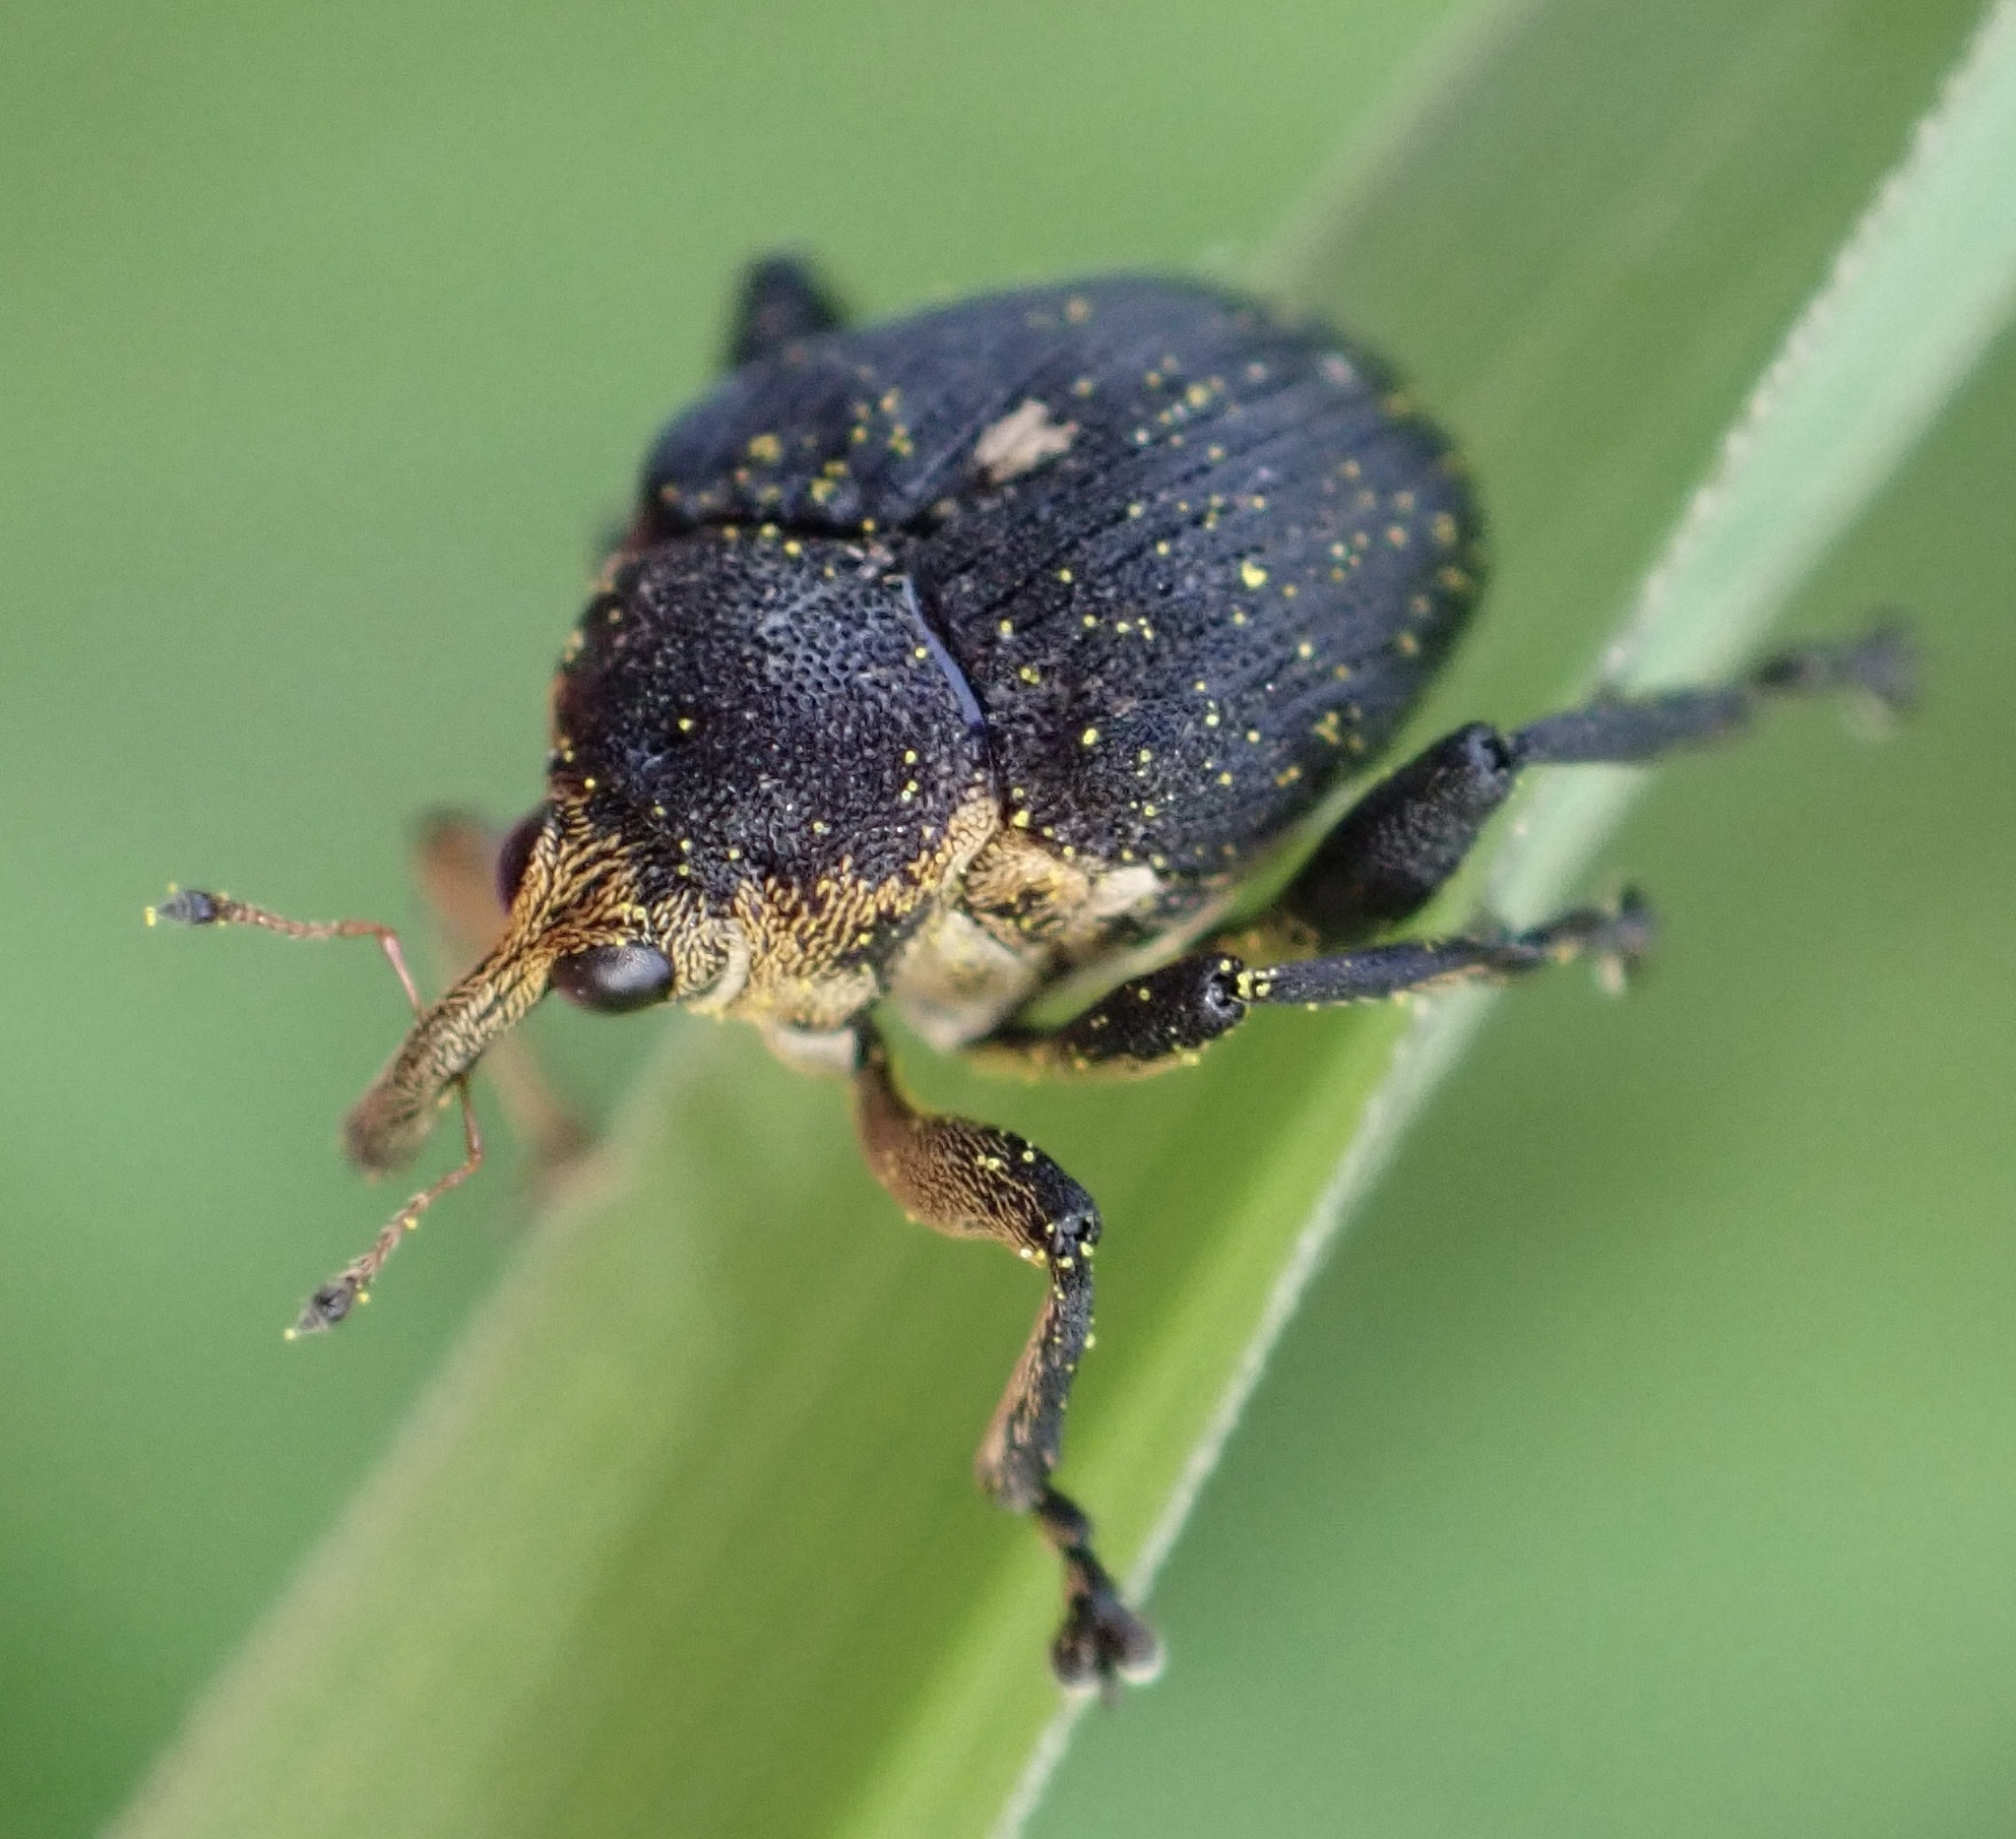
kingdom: Animalia
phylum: Arthropoda
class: Insecta
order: Coleoptera
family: Curculionidae
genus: Mononychus
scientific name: Mononychus punctumalbum
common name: Iris weevil
